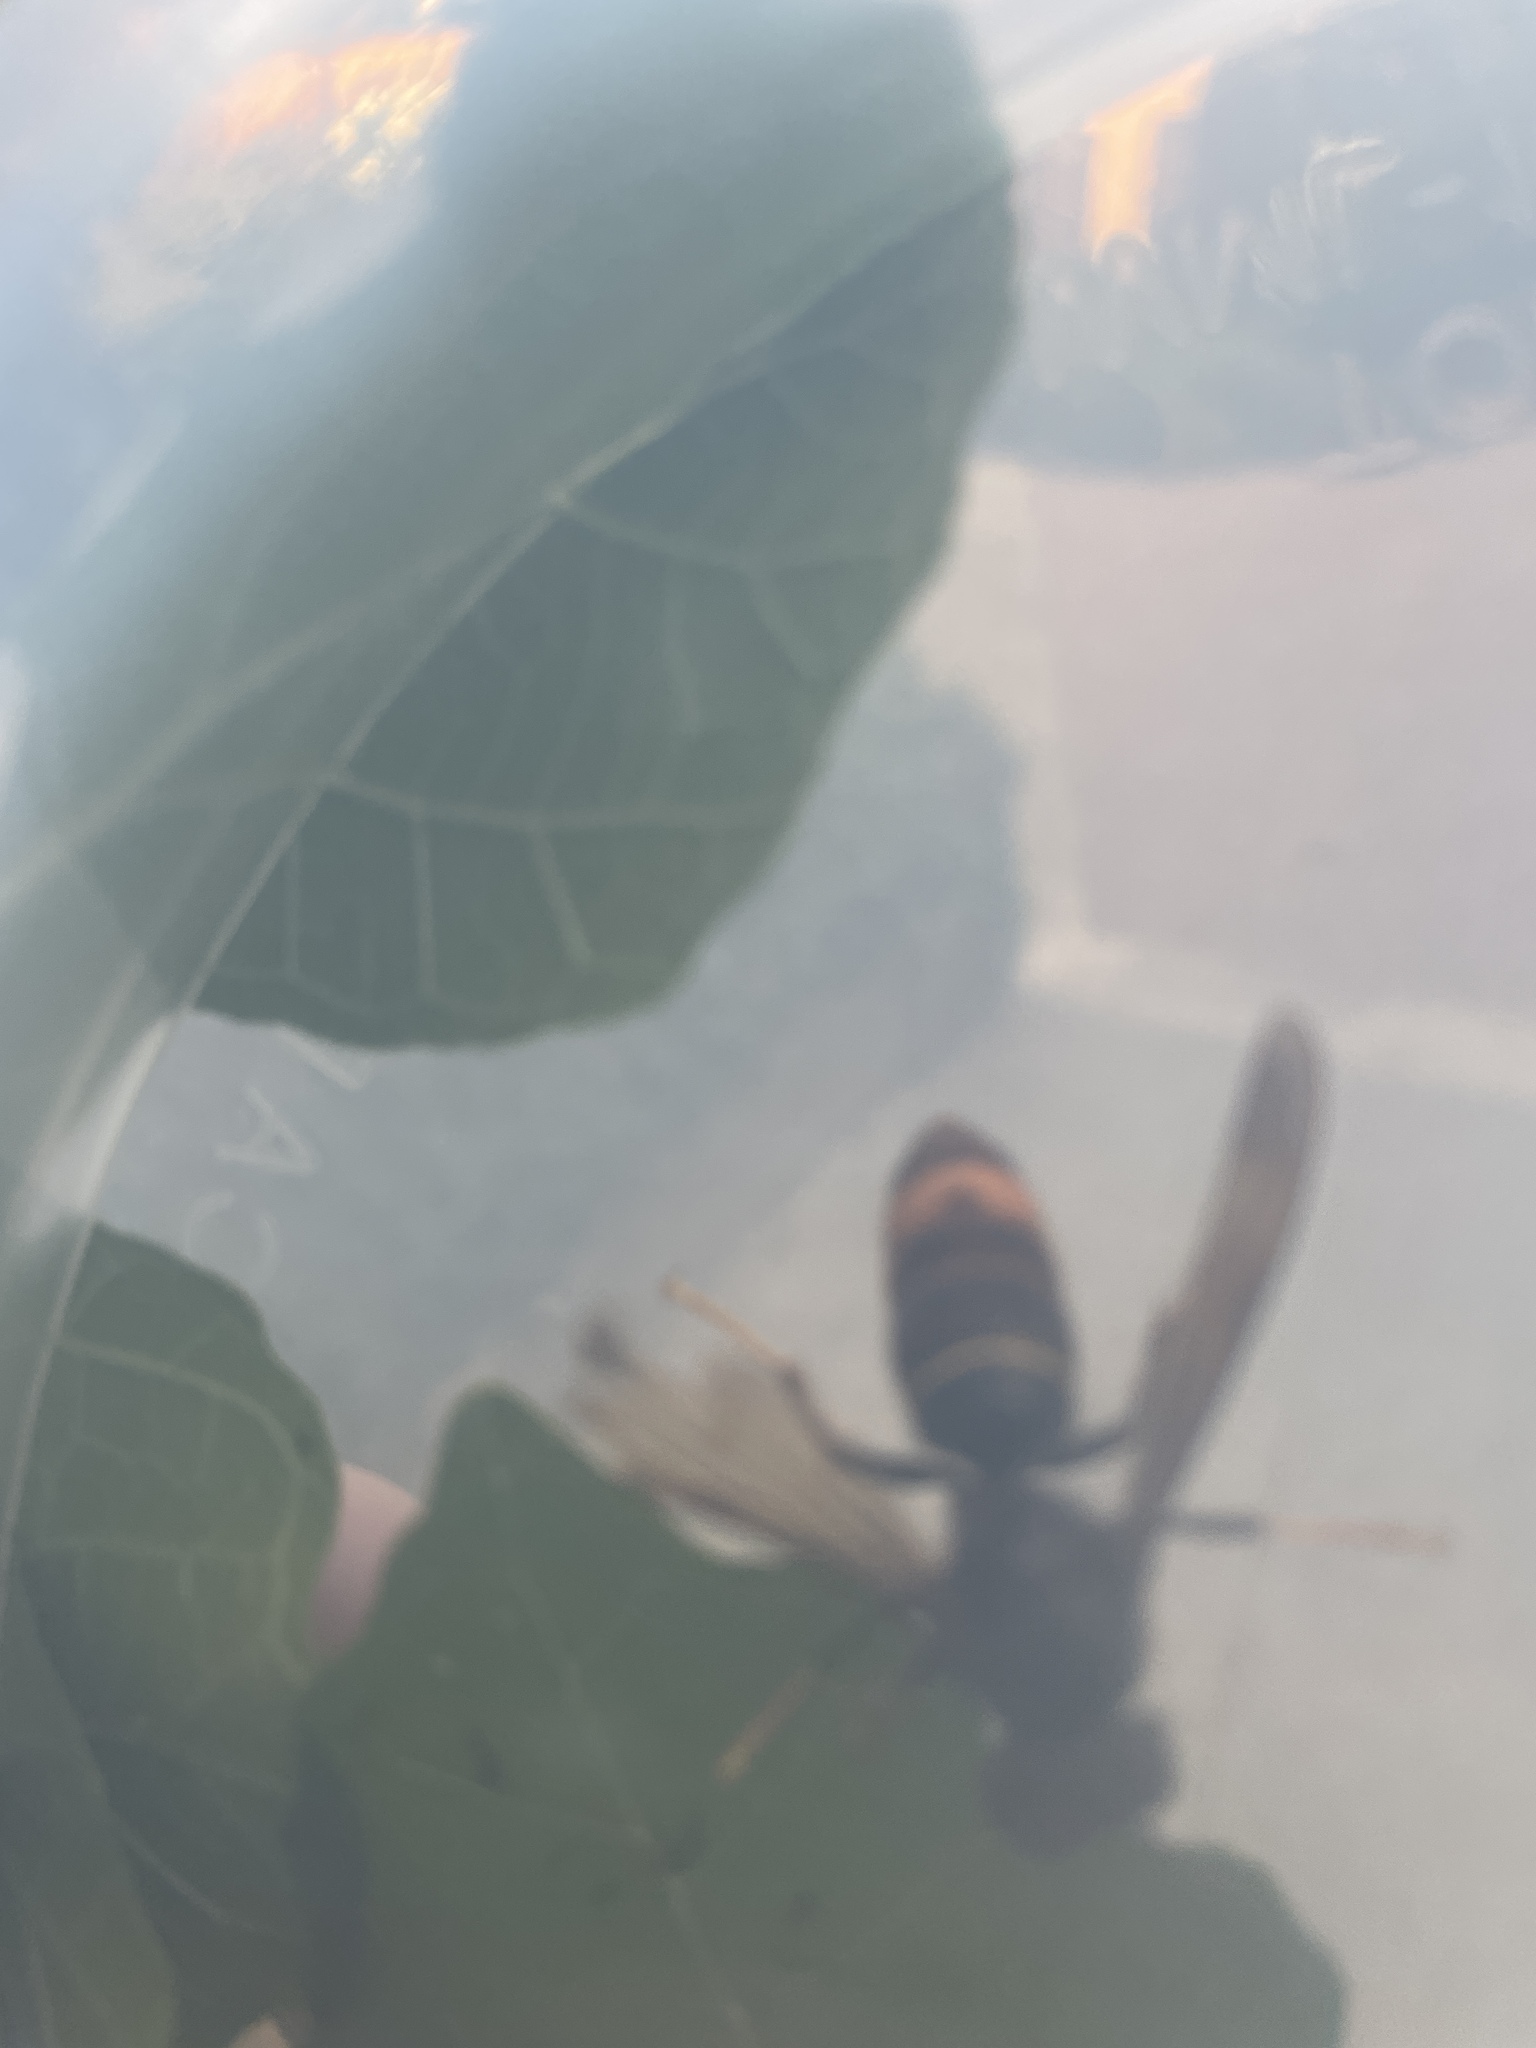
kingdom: Animalia
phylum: Arthropoda
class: Insecta
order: Hymenoptera
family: Vespidae
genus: Vespa
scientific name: Vespa velutina
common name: Asian hornet
